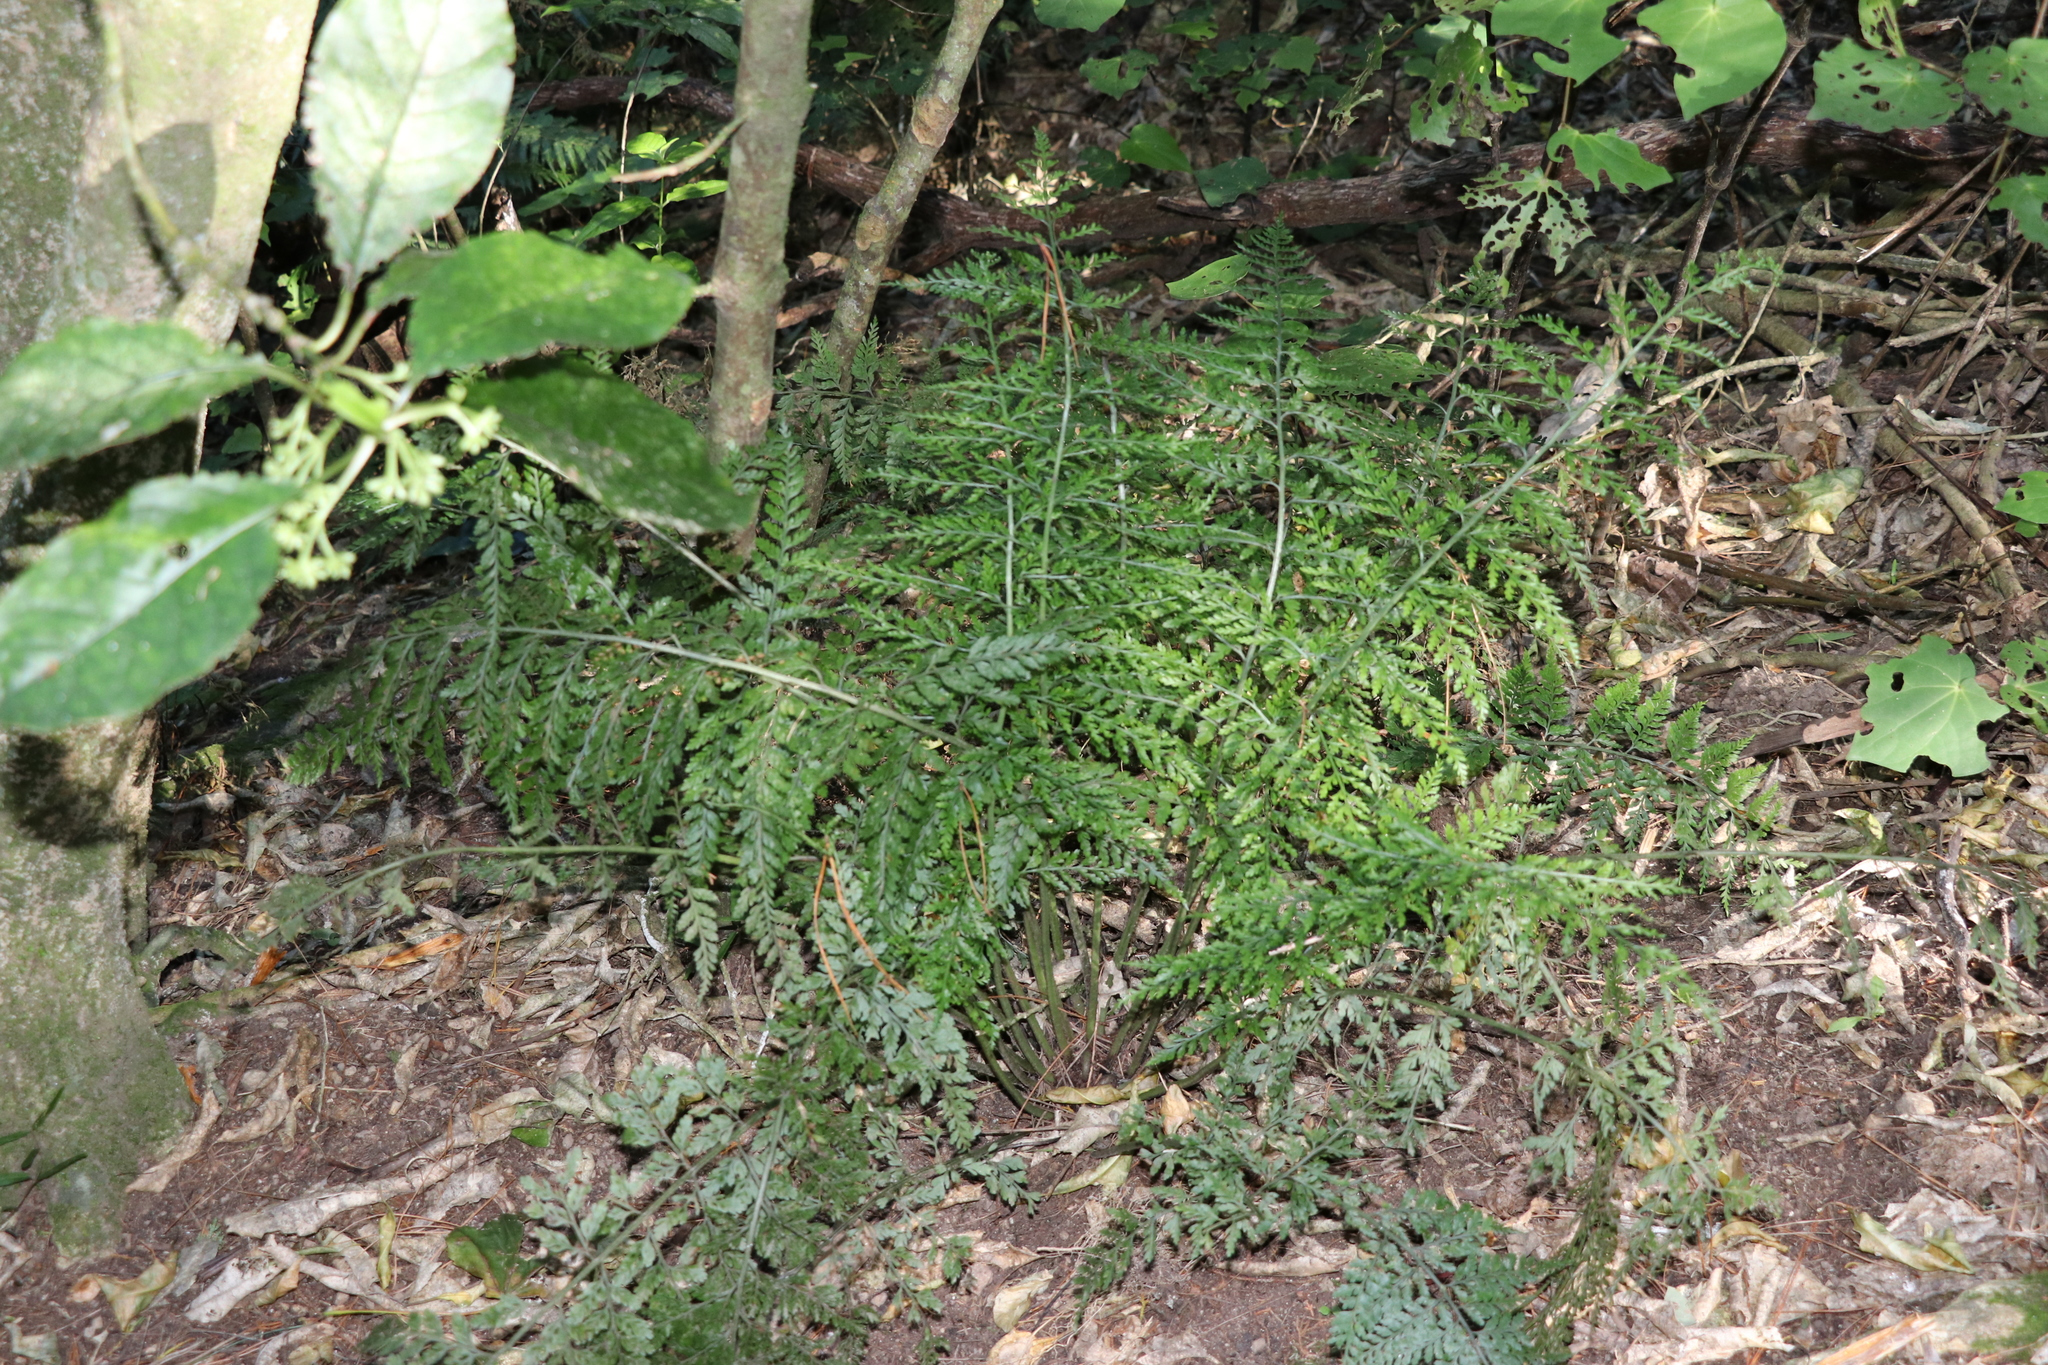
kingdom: Plantae
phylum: Tracheophyta
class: Polypodiopsida
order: Polypodiales
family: Aspleniaceae
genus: Asplenium
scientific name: Asplenium
